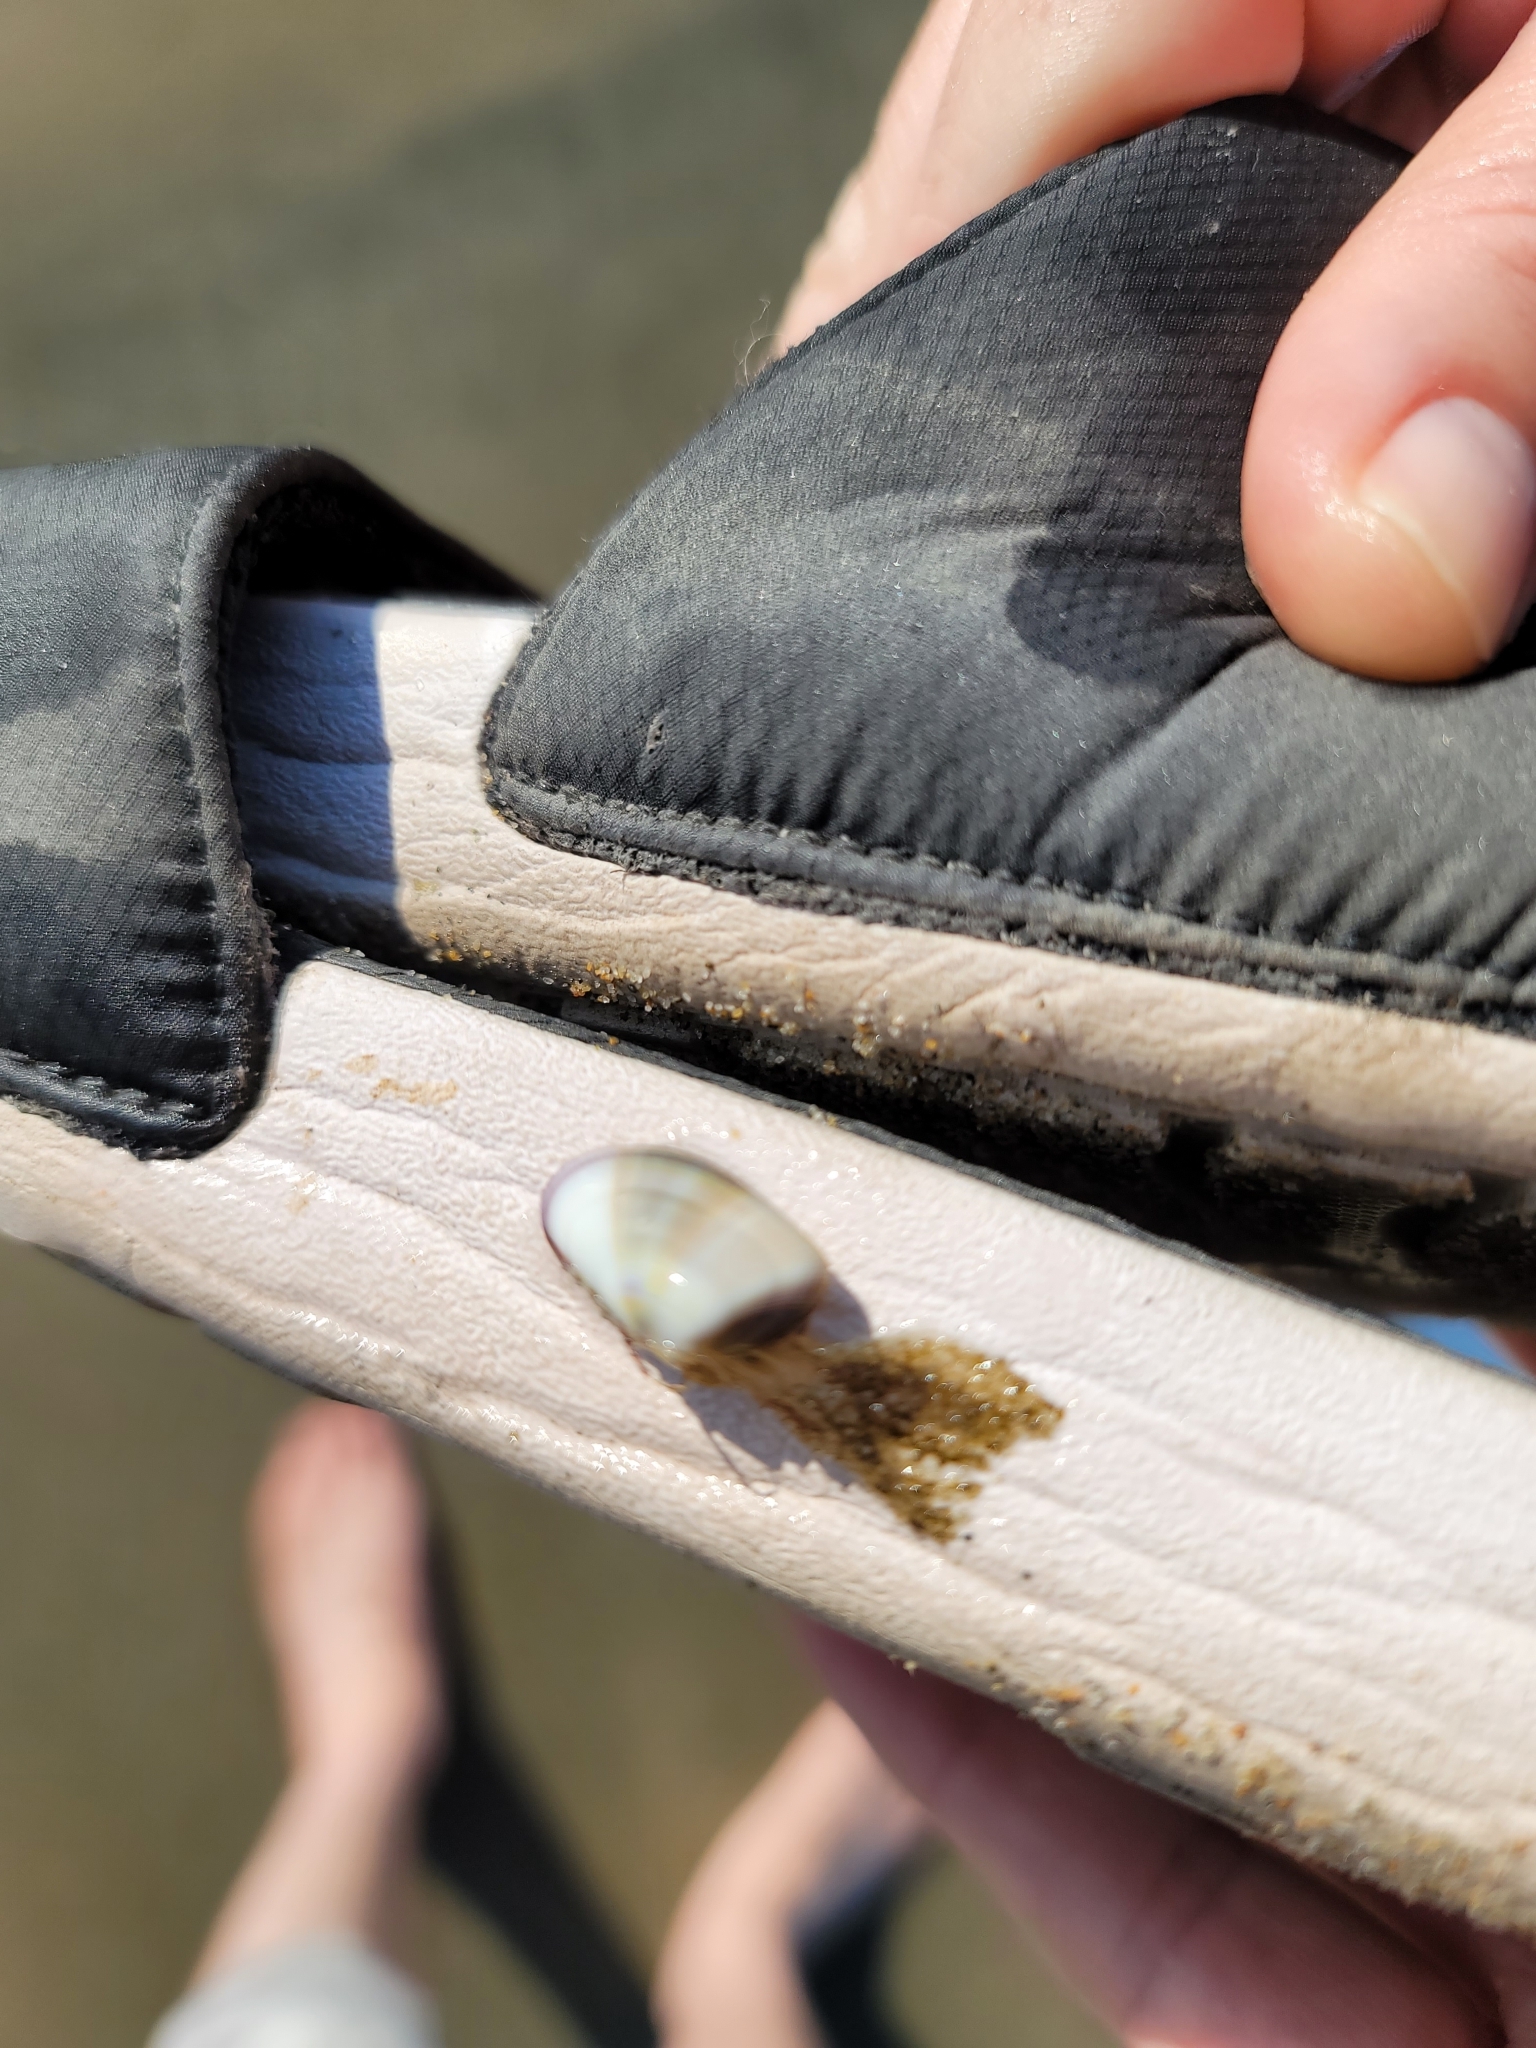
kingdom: Animalia
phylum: Cnidaria
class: Hydrozoa
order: Leptothecata
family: Lovenellidae
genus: Eucheilota
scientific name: Eucheilota bakeri
